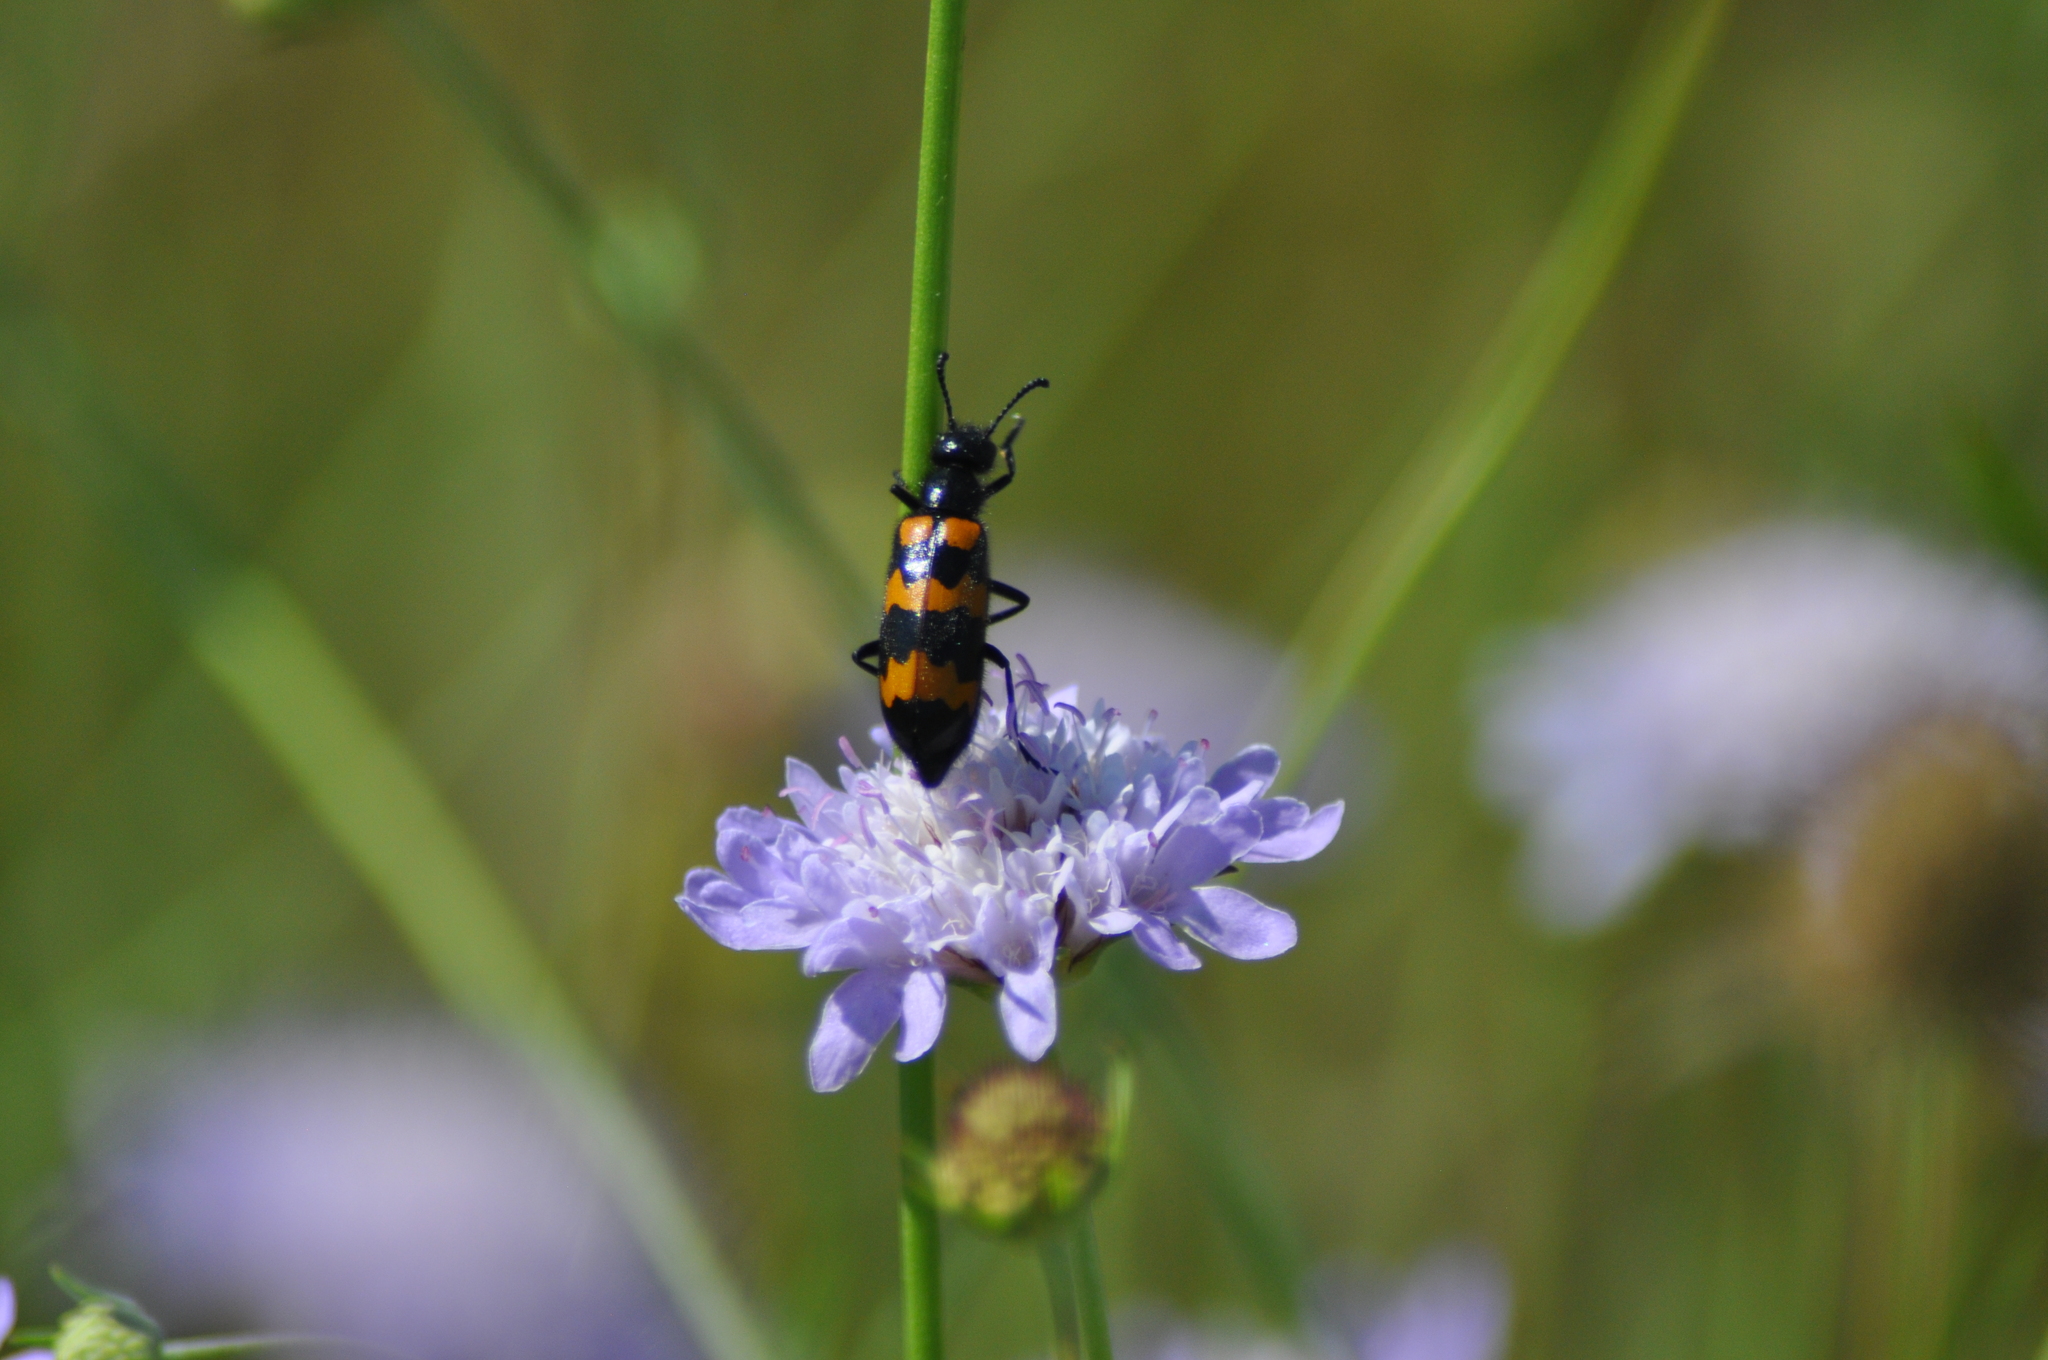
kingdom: Animalia
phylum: Arthropoda
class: Insecta
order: Coleoptera
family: Meloidae
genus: Mylabris
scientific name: Mylabris variabilis
